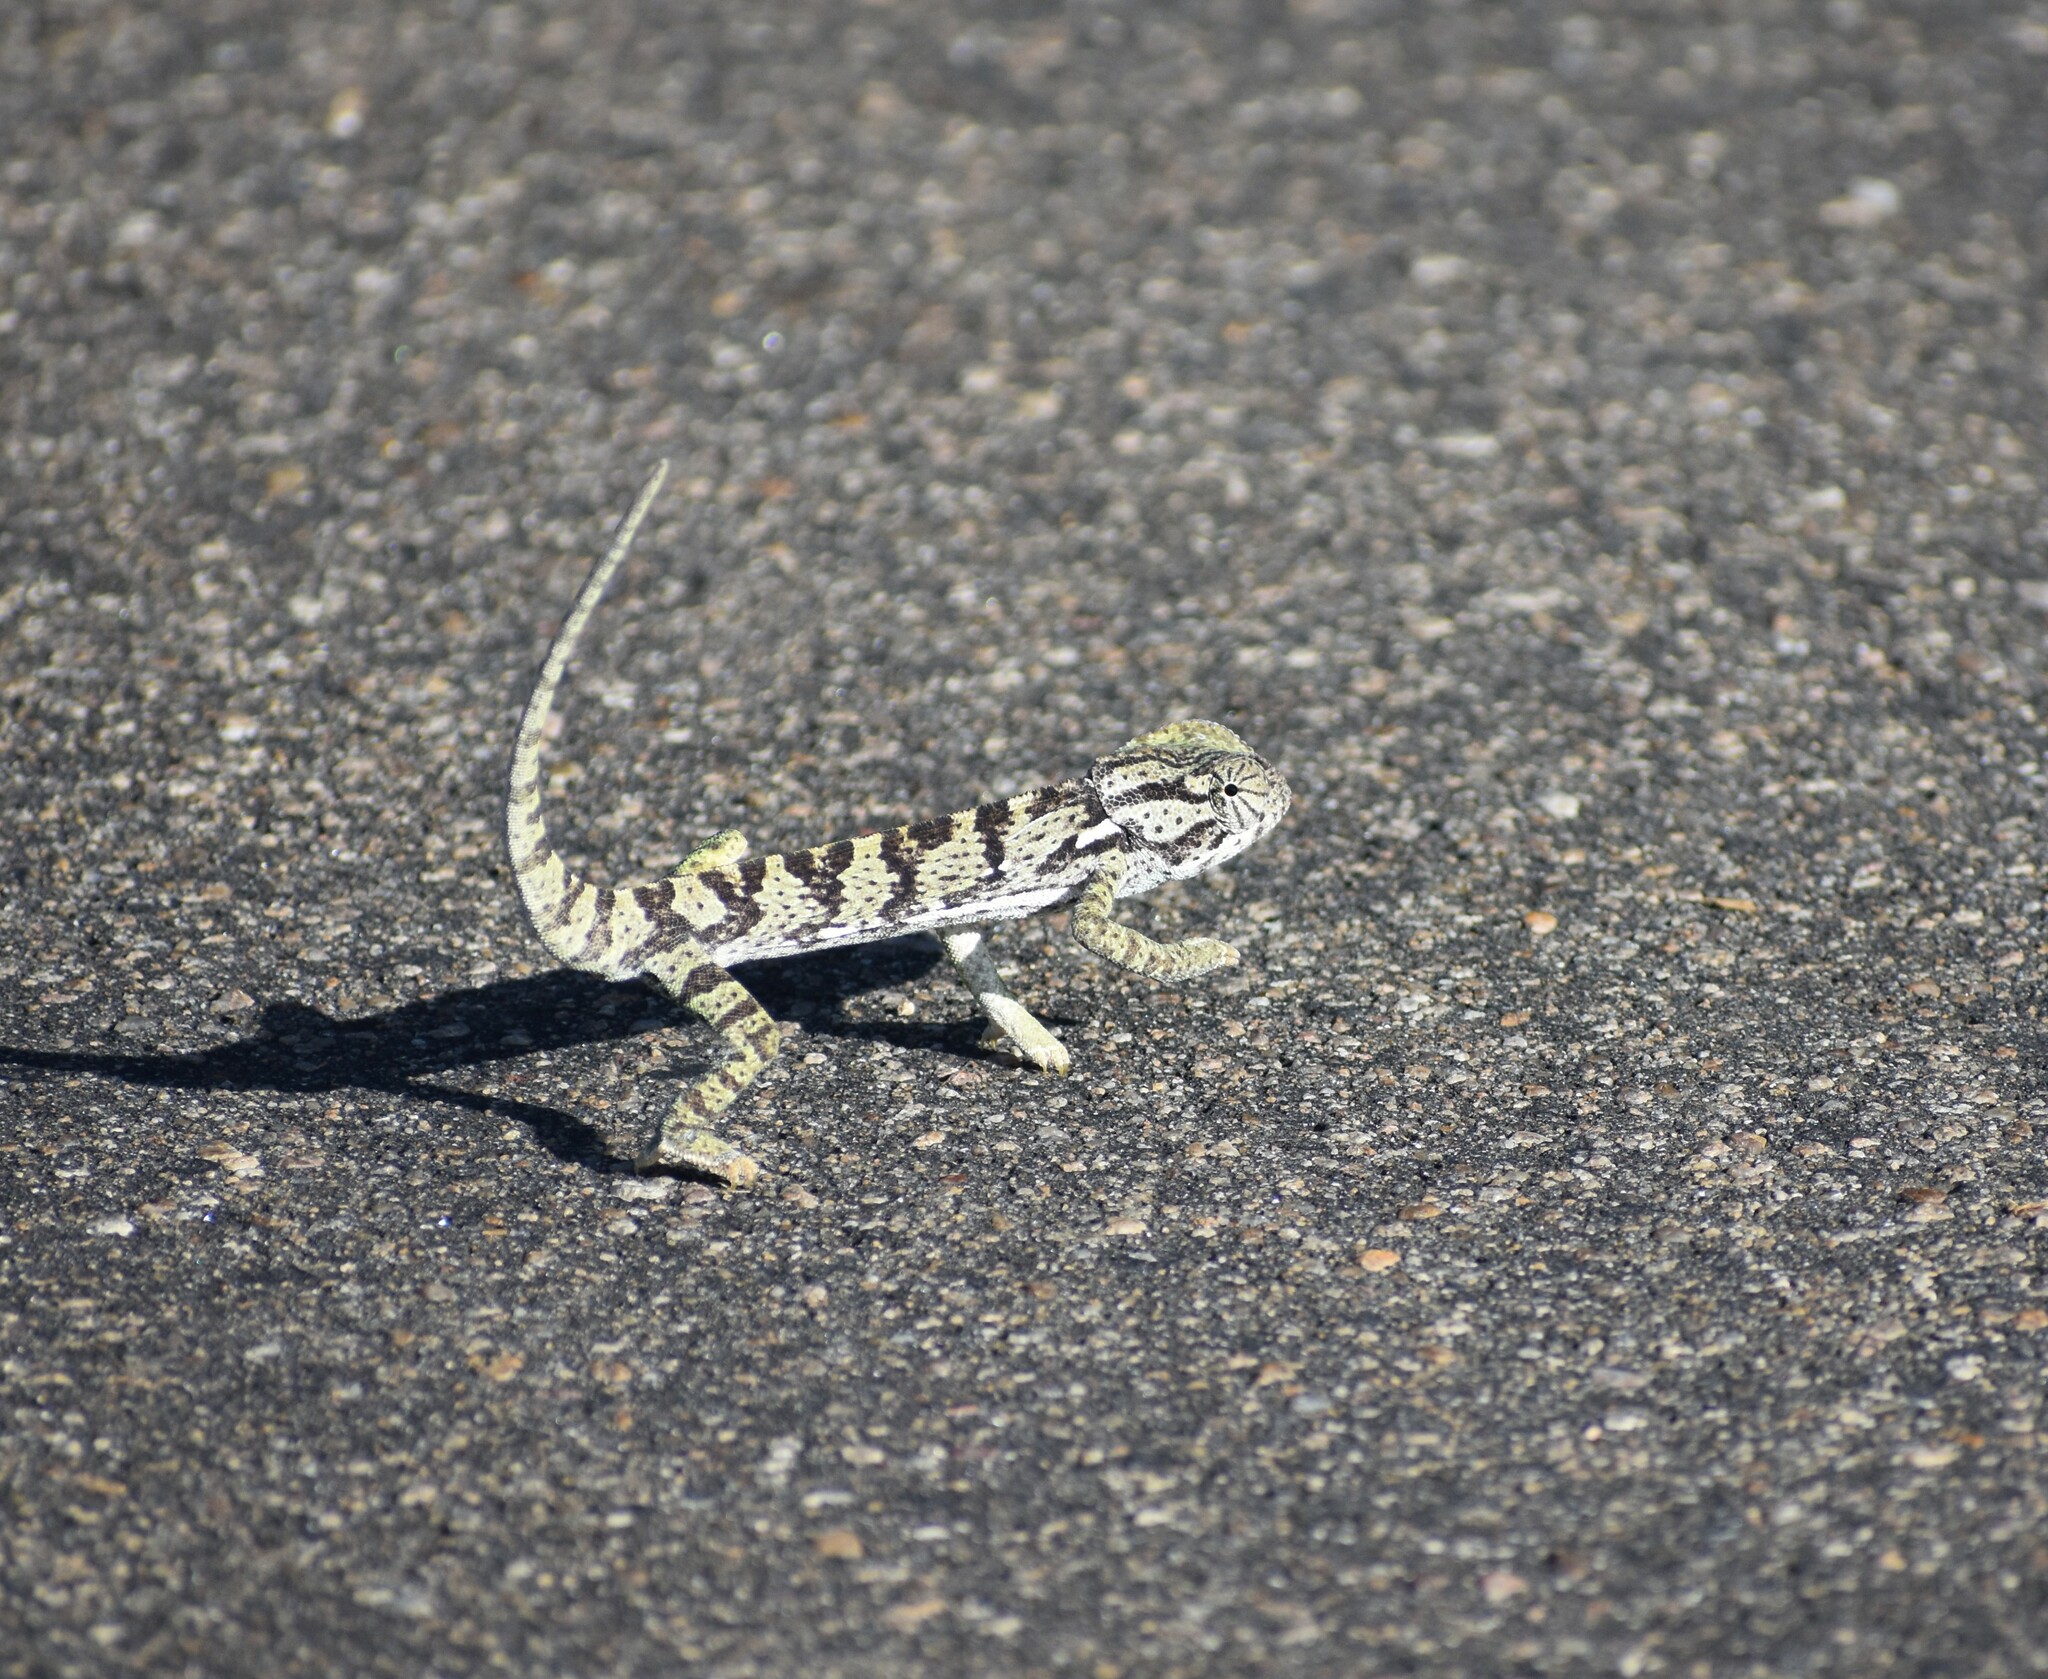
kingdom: Animalia
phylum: Chordata
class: Squamata
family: Chamaeleonidae
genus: Chamaeleo
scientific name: Chamaeleo dilepis
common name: Flapneck chameleon
